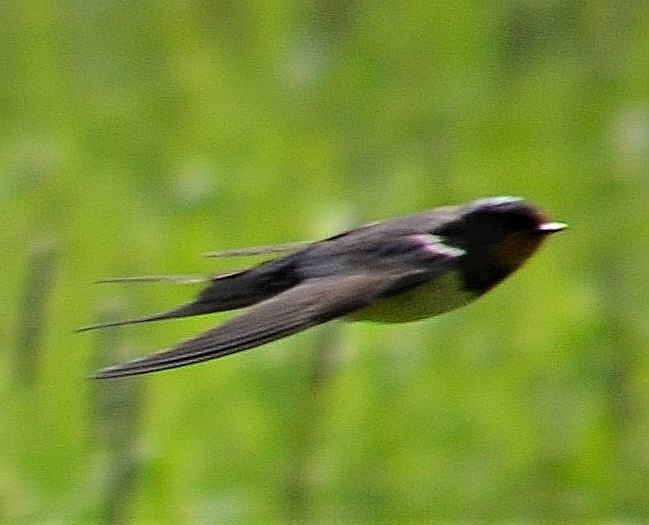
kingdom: Animalia
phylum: Chordata
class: Aves
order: Passeriformes
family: Hirundinidae
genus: Hirundo
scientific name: Hirundo rustica
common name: Barn swallow
